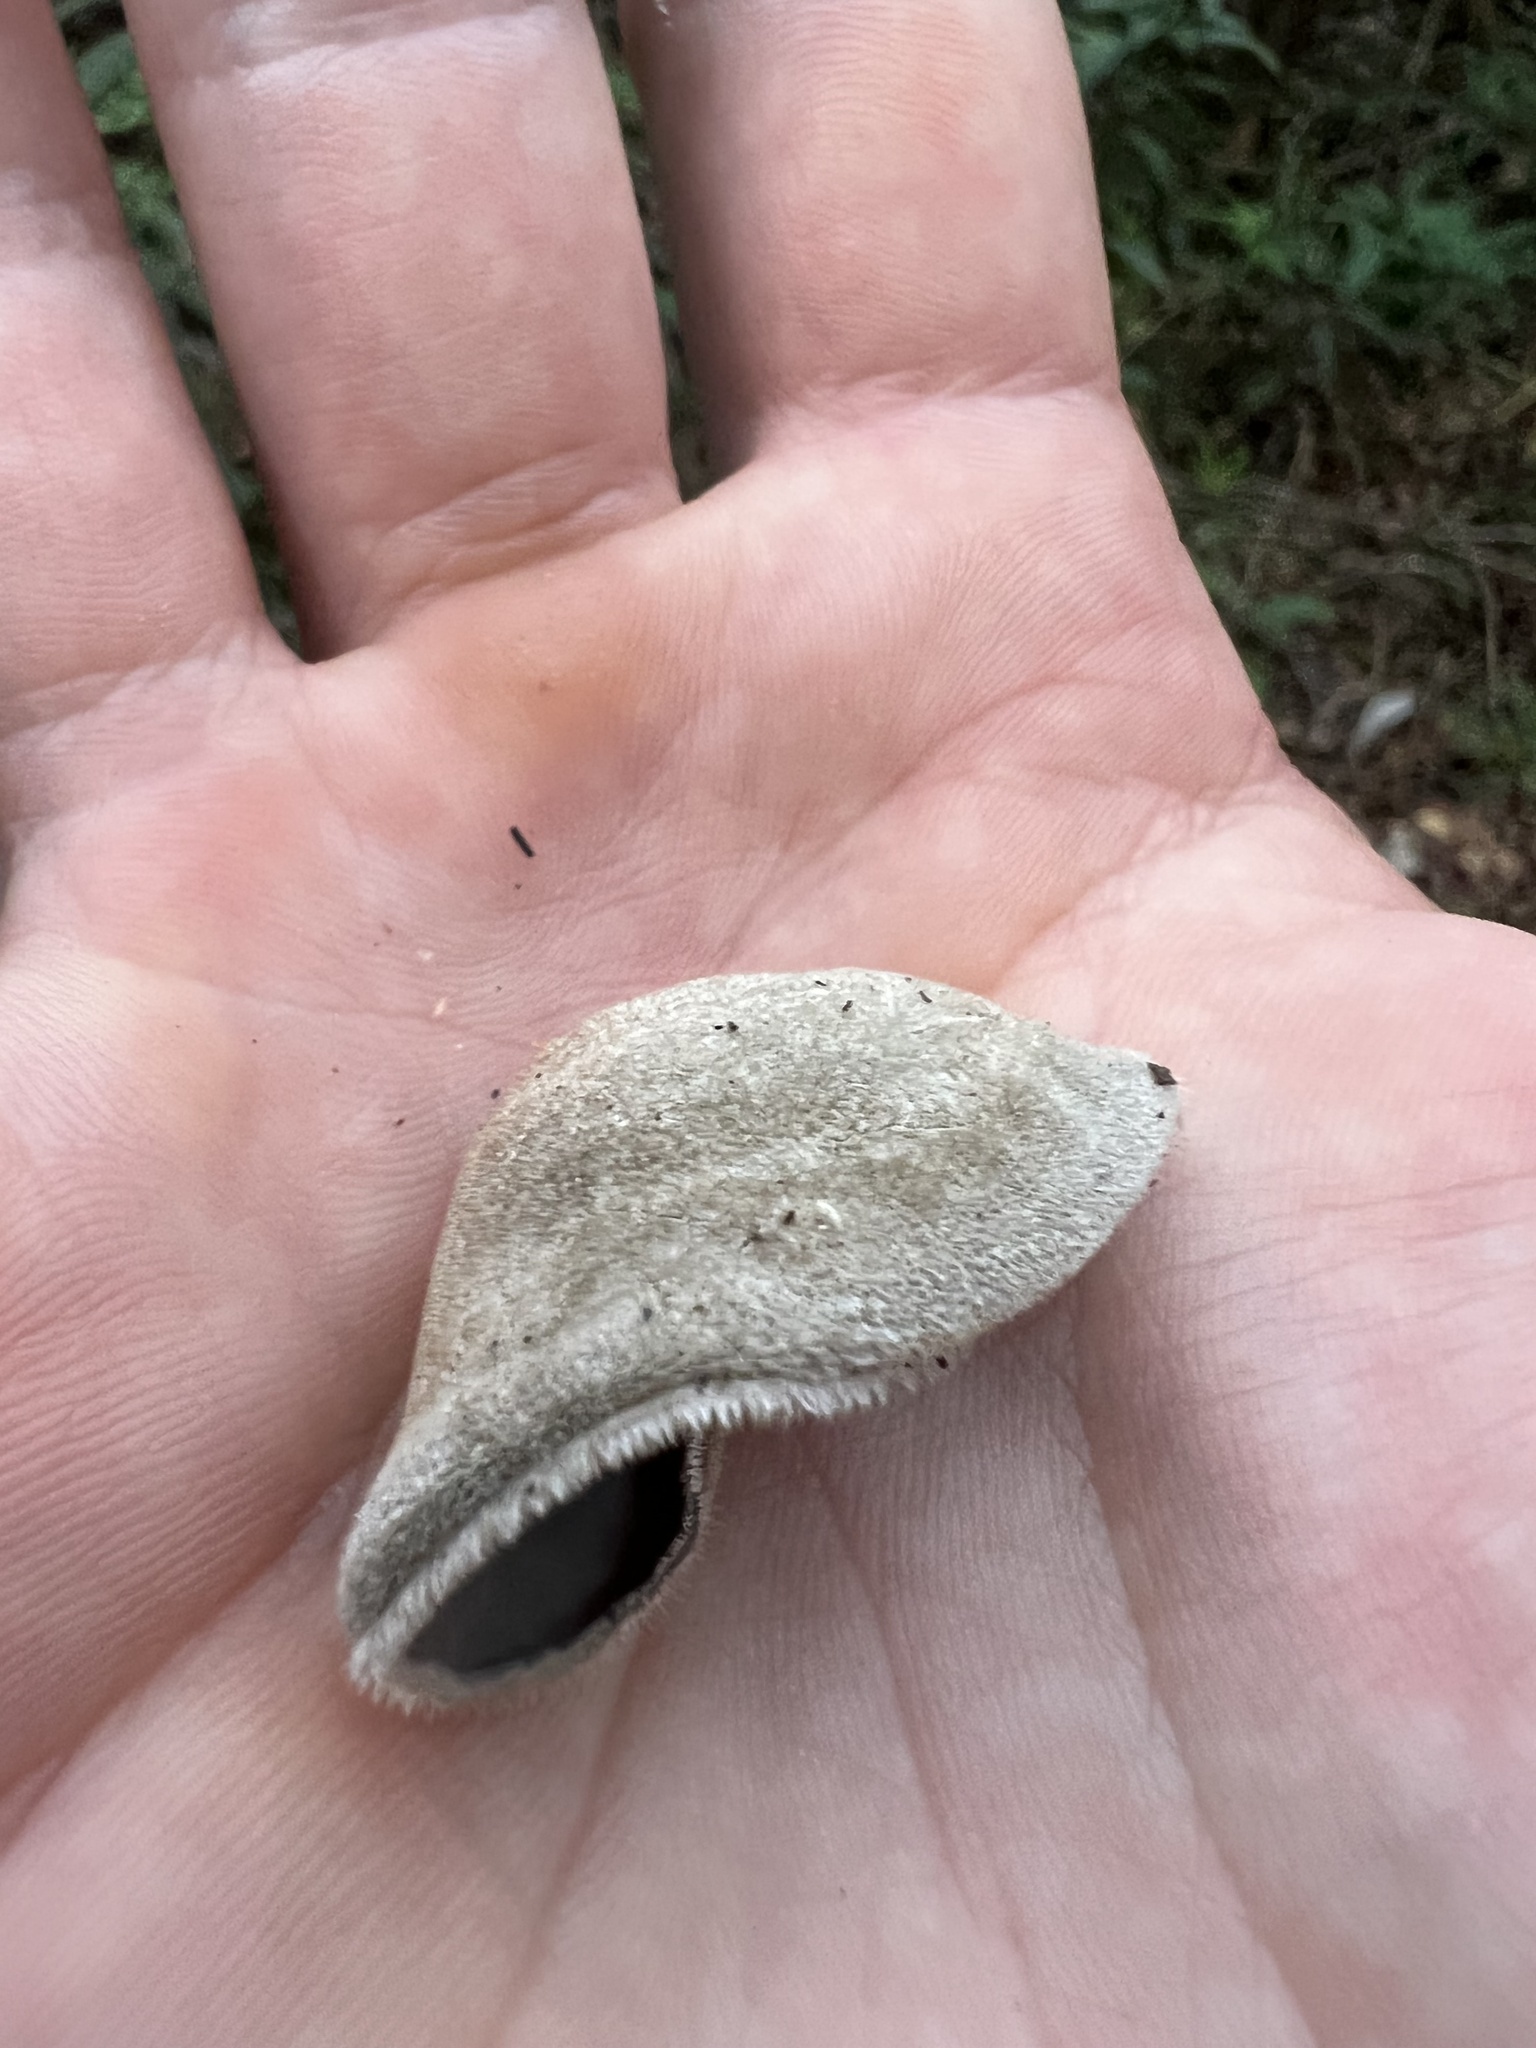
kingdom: Fungi
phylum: Basidiomycota
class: Agaricomycetes
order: Auriculariales
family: Auriculariaceae
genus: Auricularia
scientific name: Auricularia nigricans
